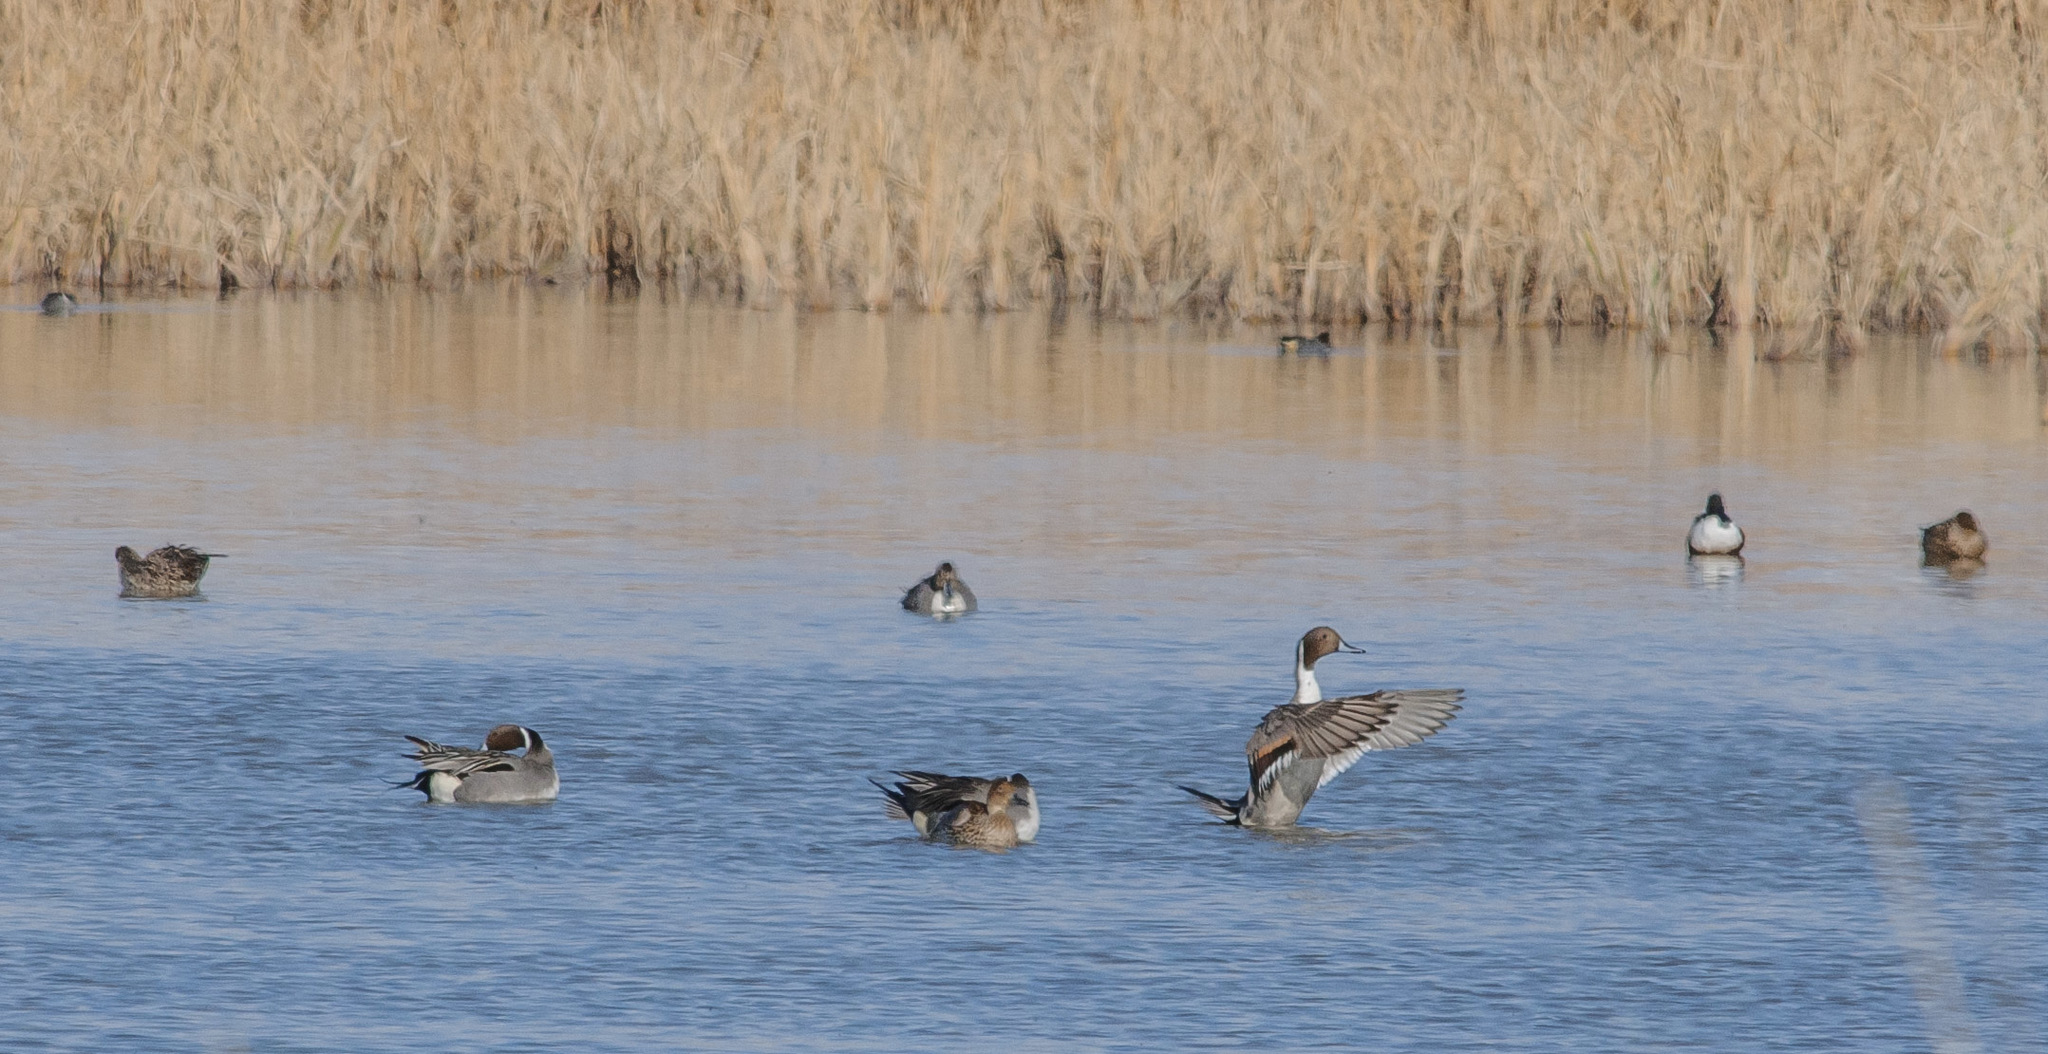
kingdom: Animalia
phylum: Chordata
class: Aves
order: Anseriformes
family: Anatidae
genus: Anas
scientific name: Anas acuta
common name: Northern pintail
